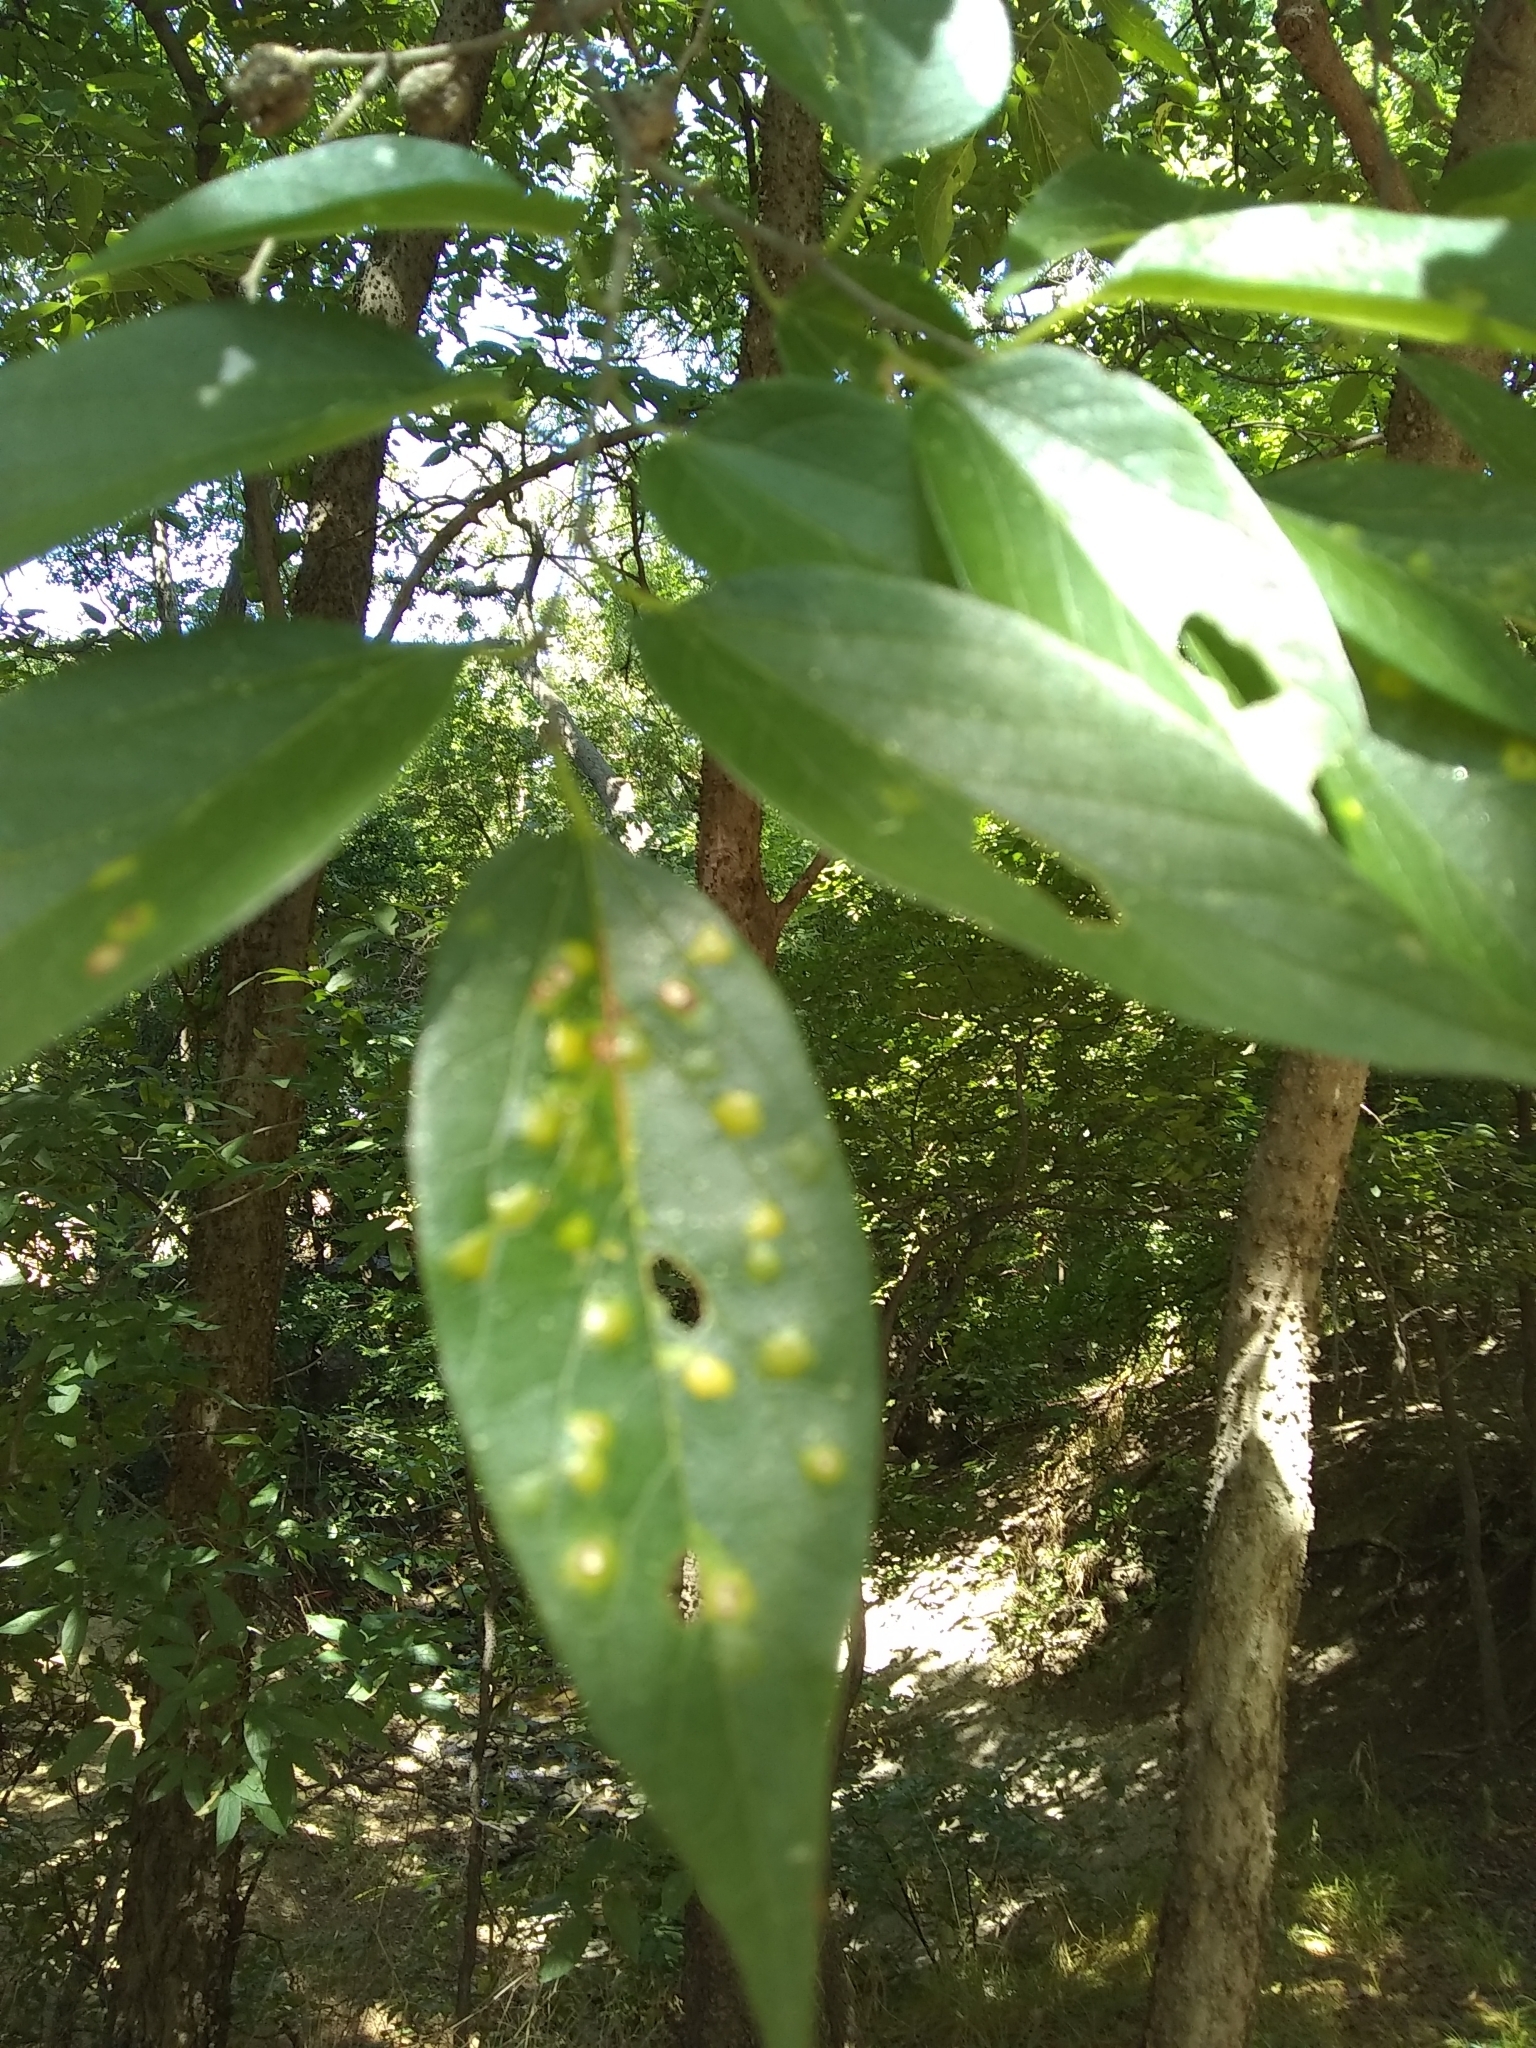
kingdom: Animalia
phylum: Arthropoda
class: Insecta
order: Hemiptera
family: Aphalaridae
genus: Pachypsylla
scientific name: Pachypsylla celtidisvesicula
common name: Hackberry blister gall psyllid
